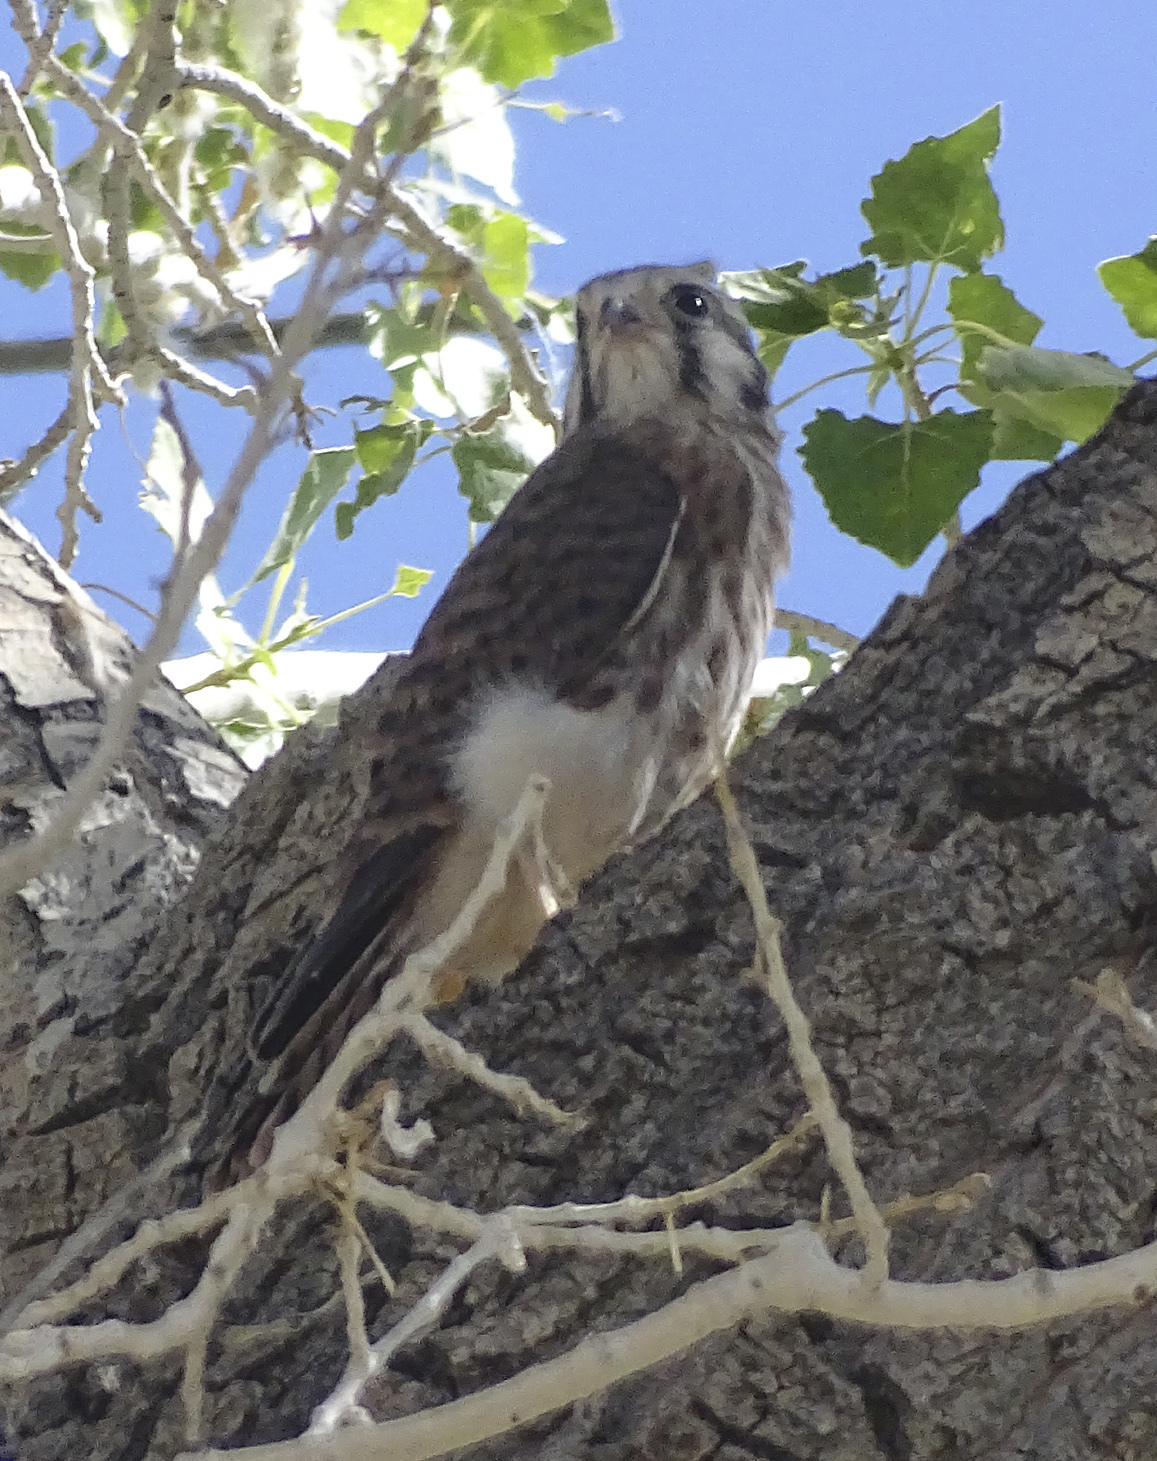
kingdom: Animalia
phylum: Chordata
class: Aves
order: Falconiformes
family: Falconidae
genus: Falco
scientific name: Falco sparverius
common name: American kestrel
